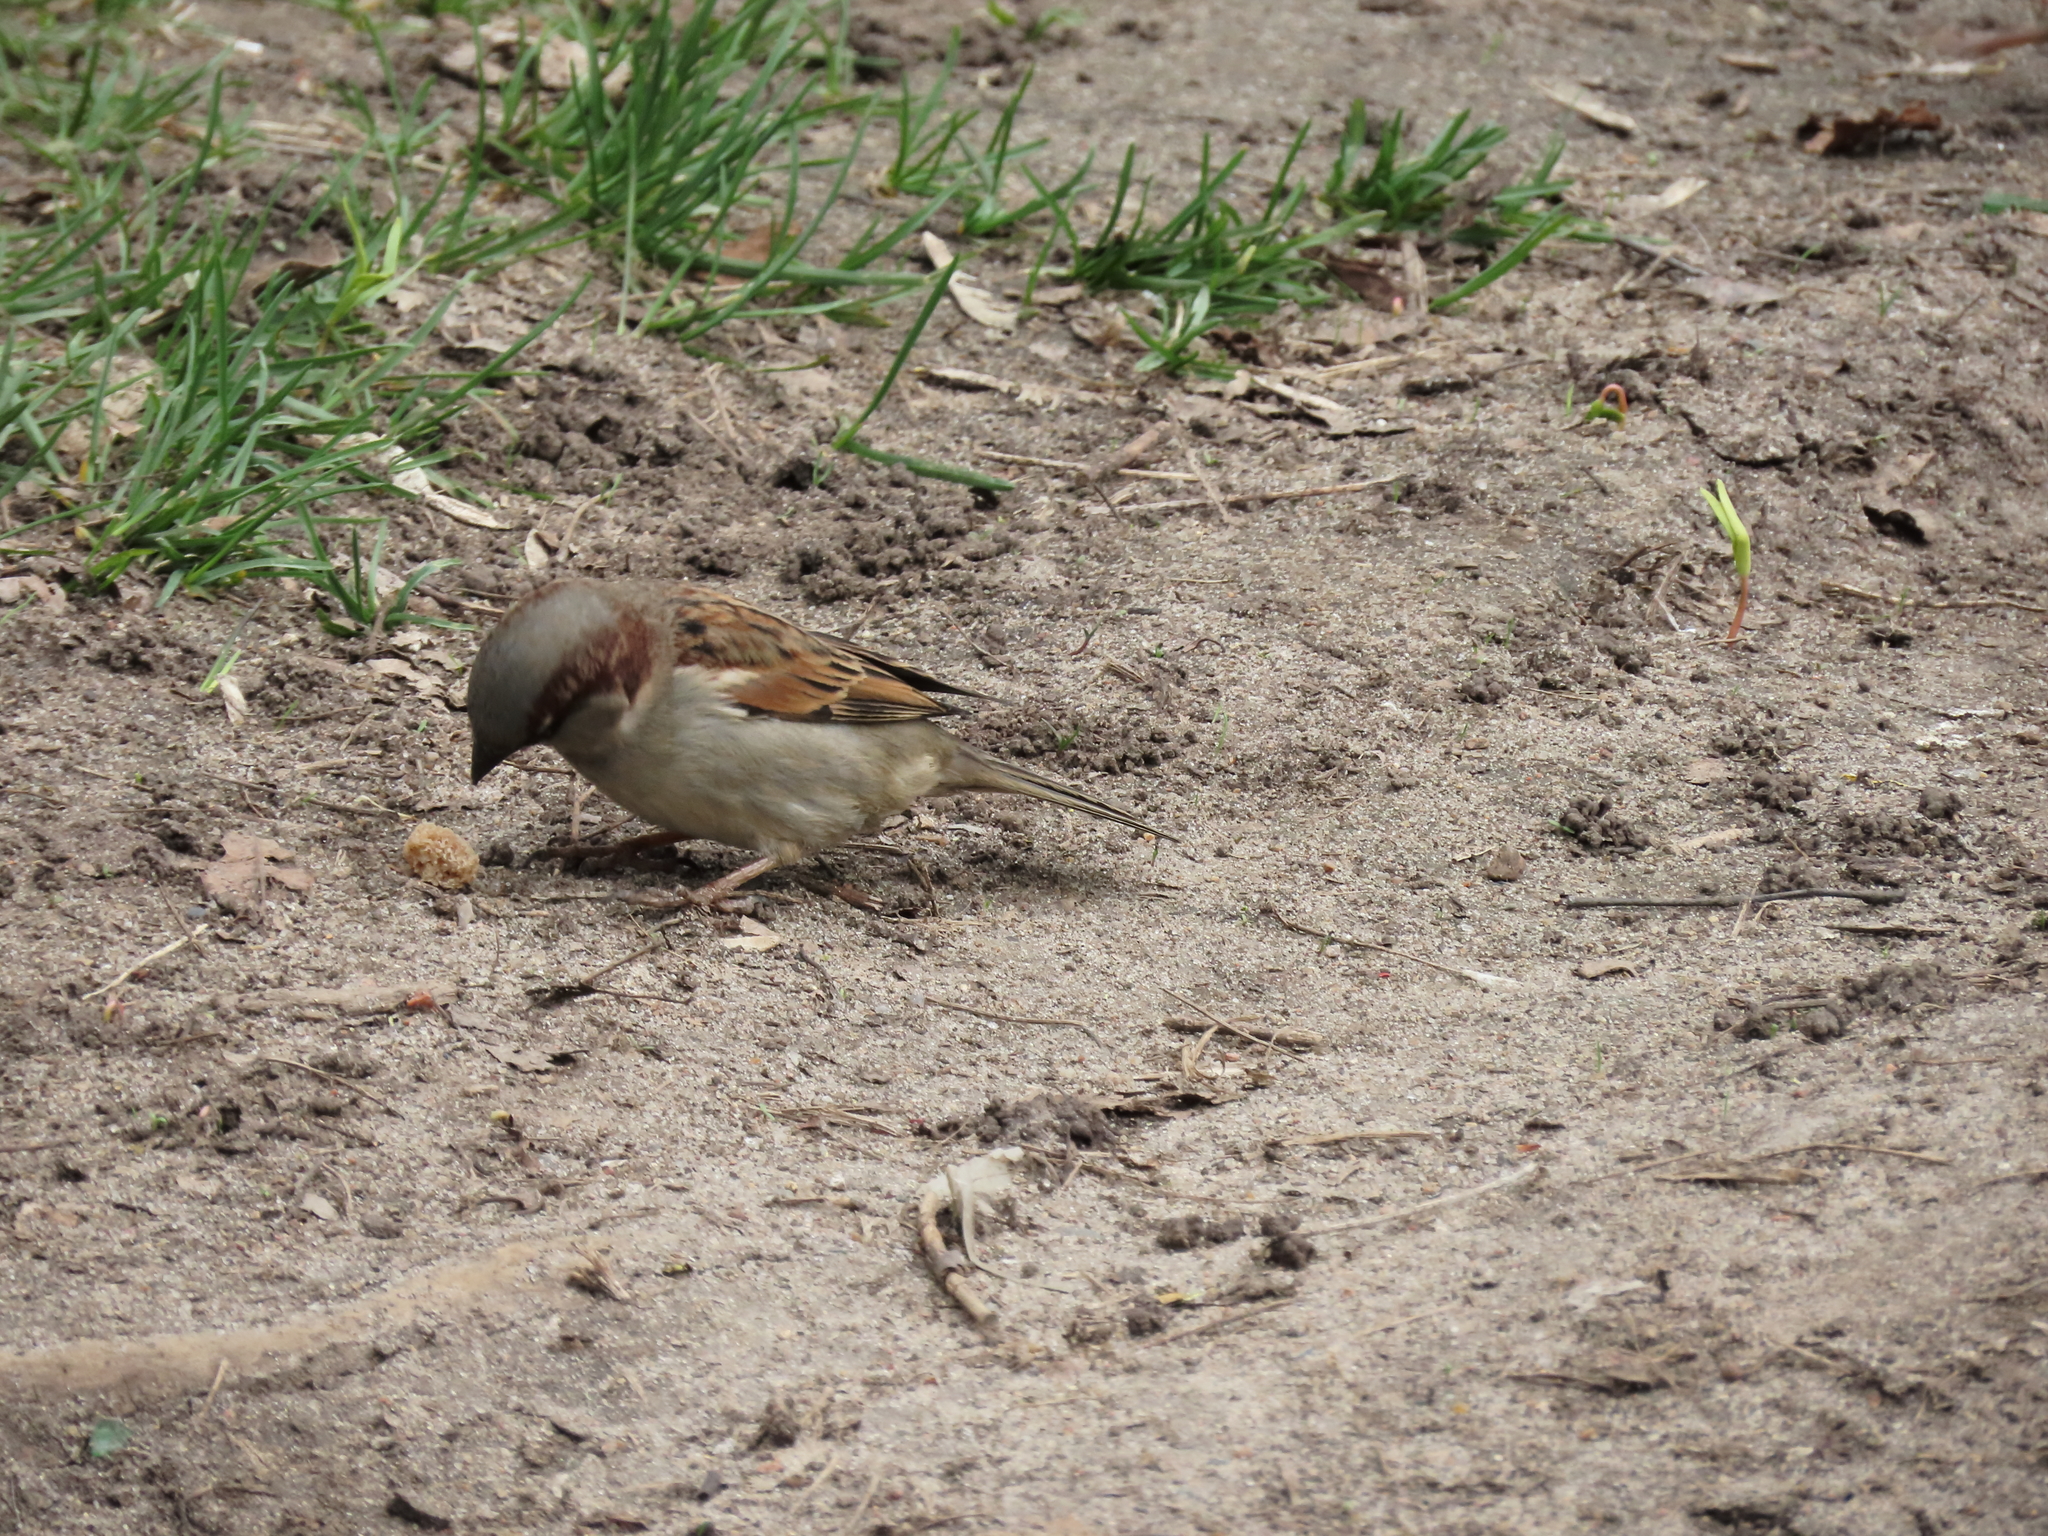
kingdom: Animalia
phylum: Chordata
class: Aves
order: Passeriformes
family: Passeridae
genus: Passer
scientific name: Passer domesticus
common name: House sparrow
